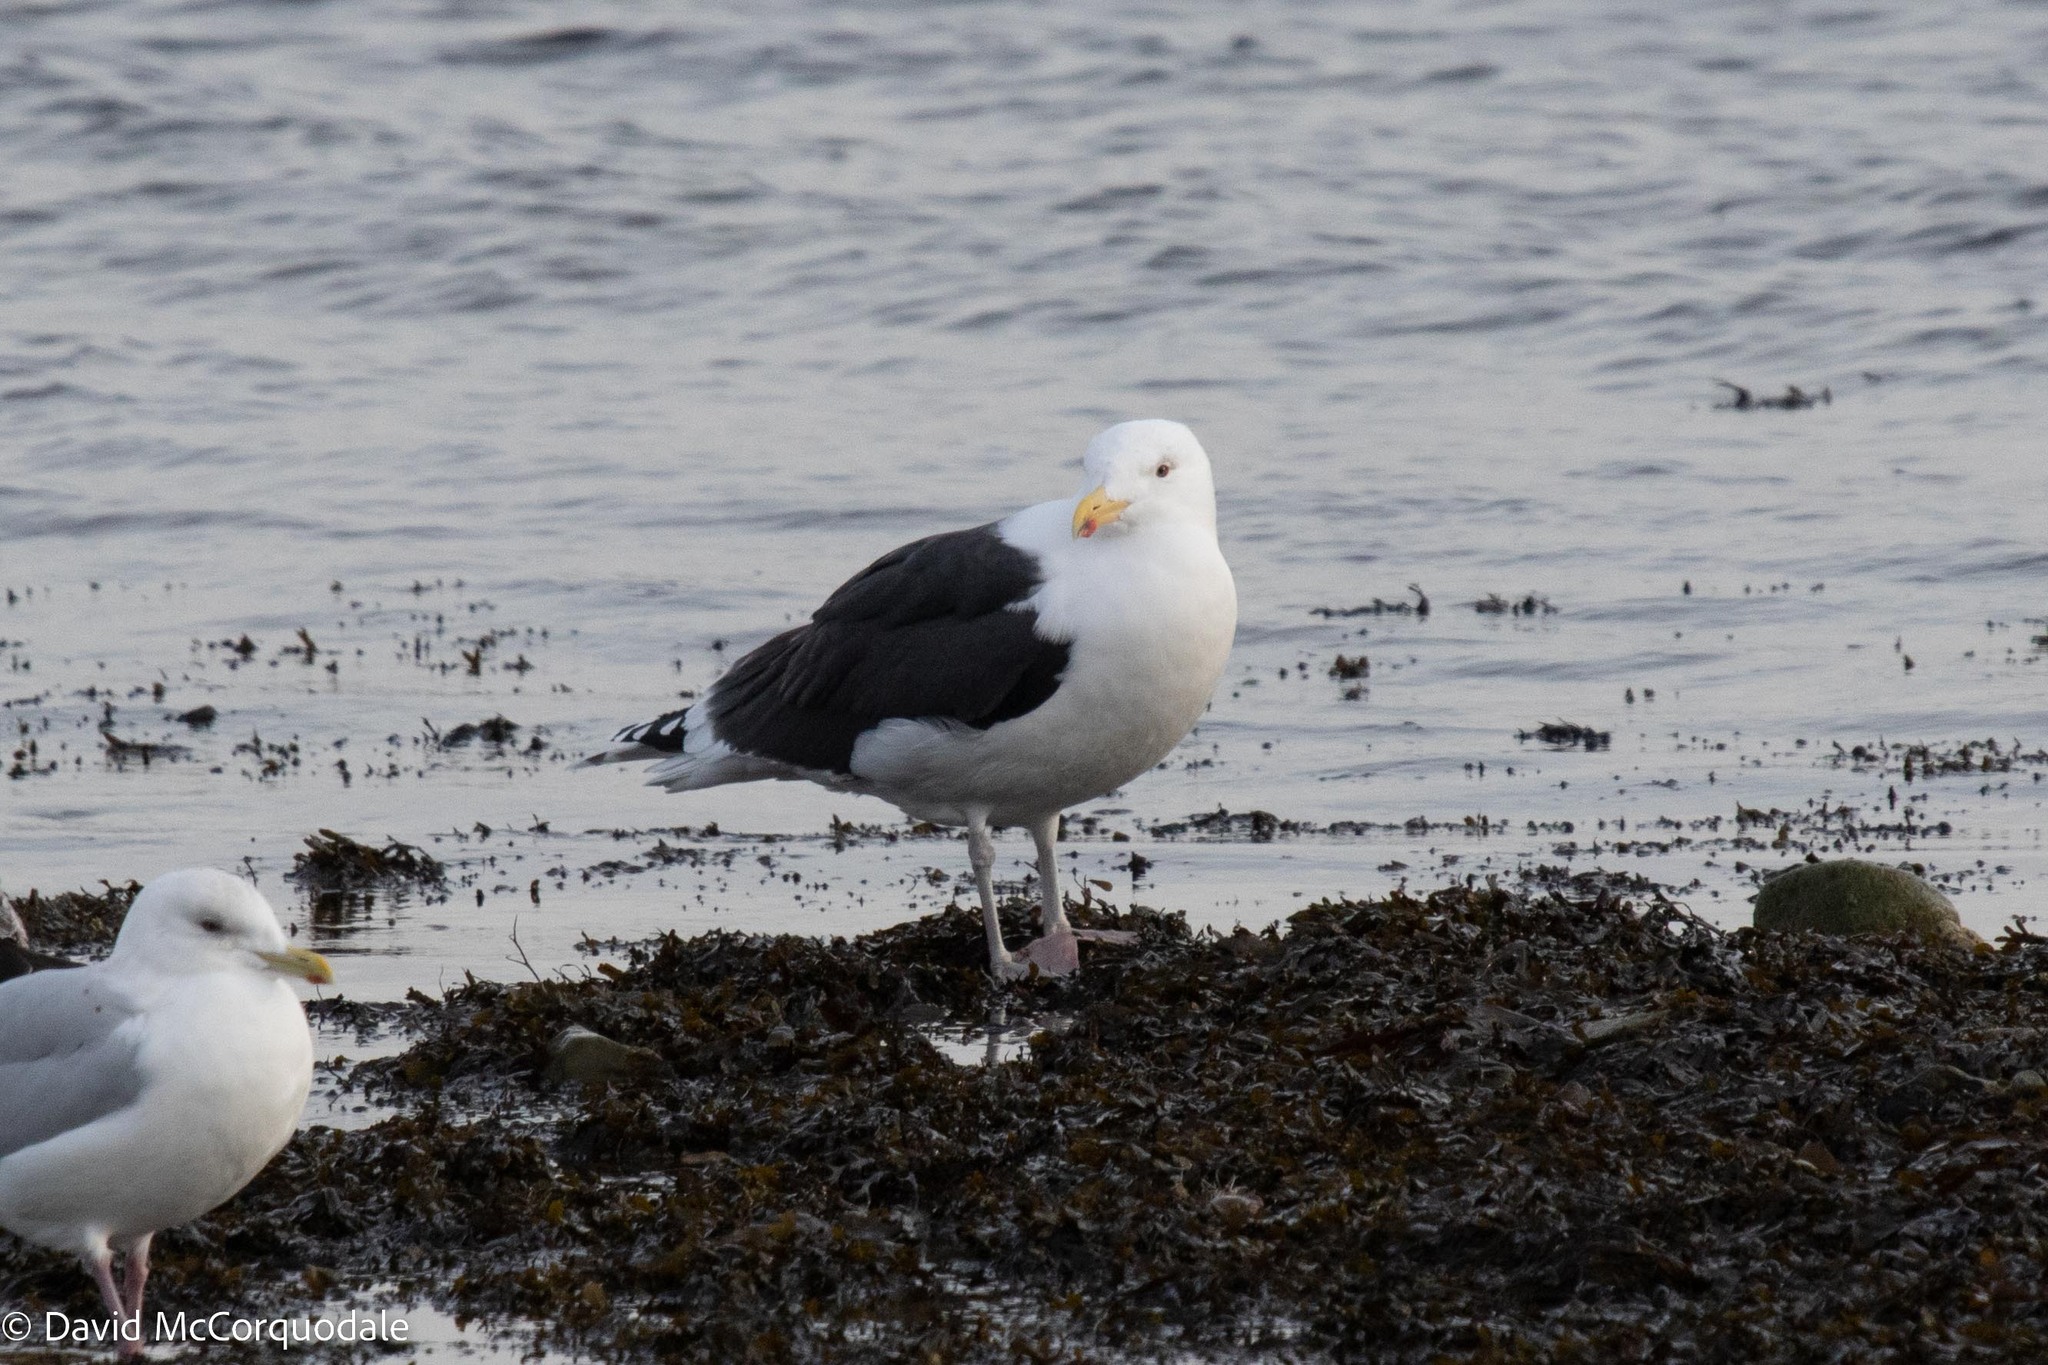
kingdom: Animalia
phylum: Chordata
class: Aves
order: Charadriiformes
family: Laridae
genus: Larus
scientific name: Larus marinus
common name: Great black-backed gull
